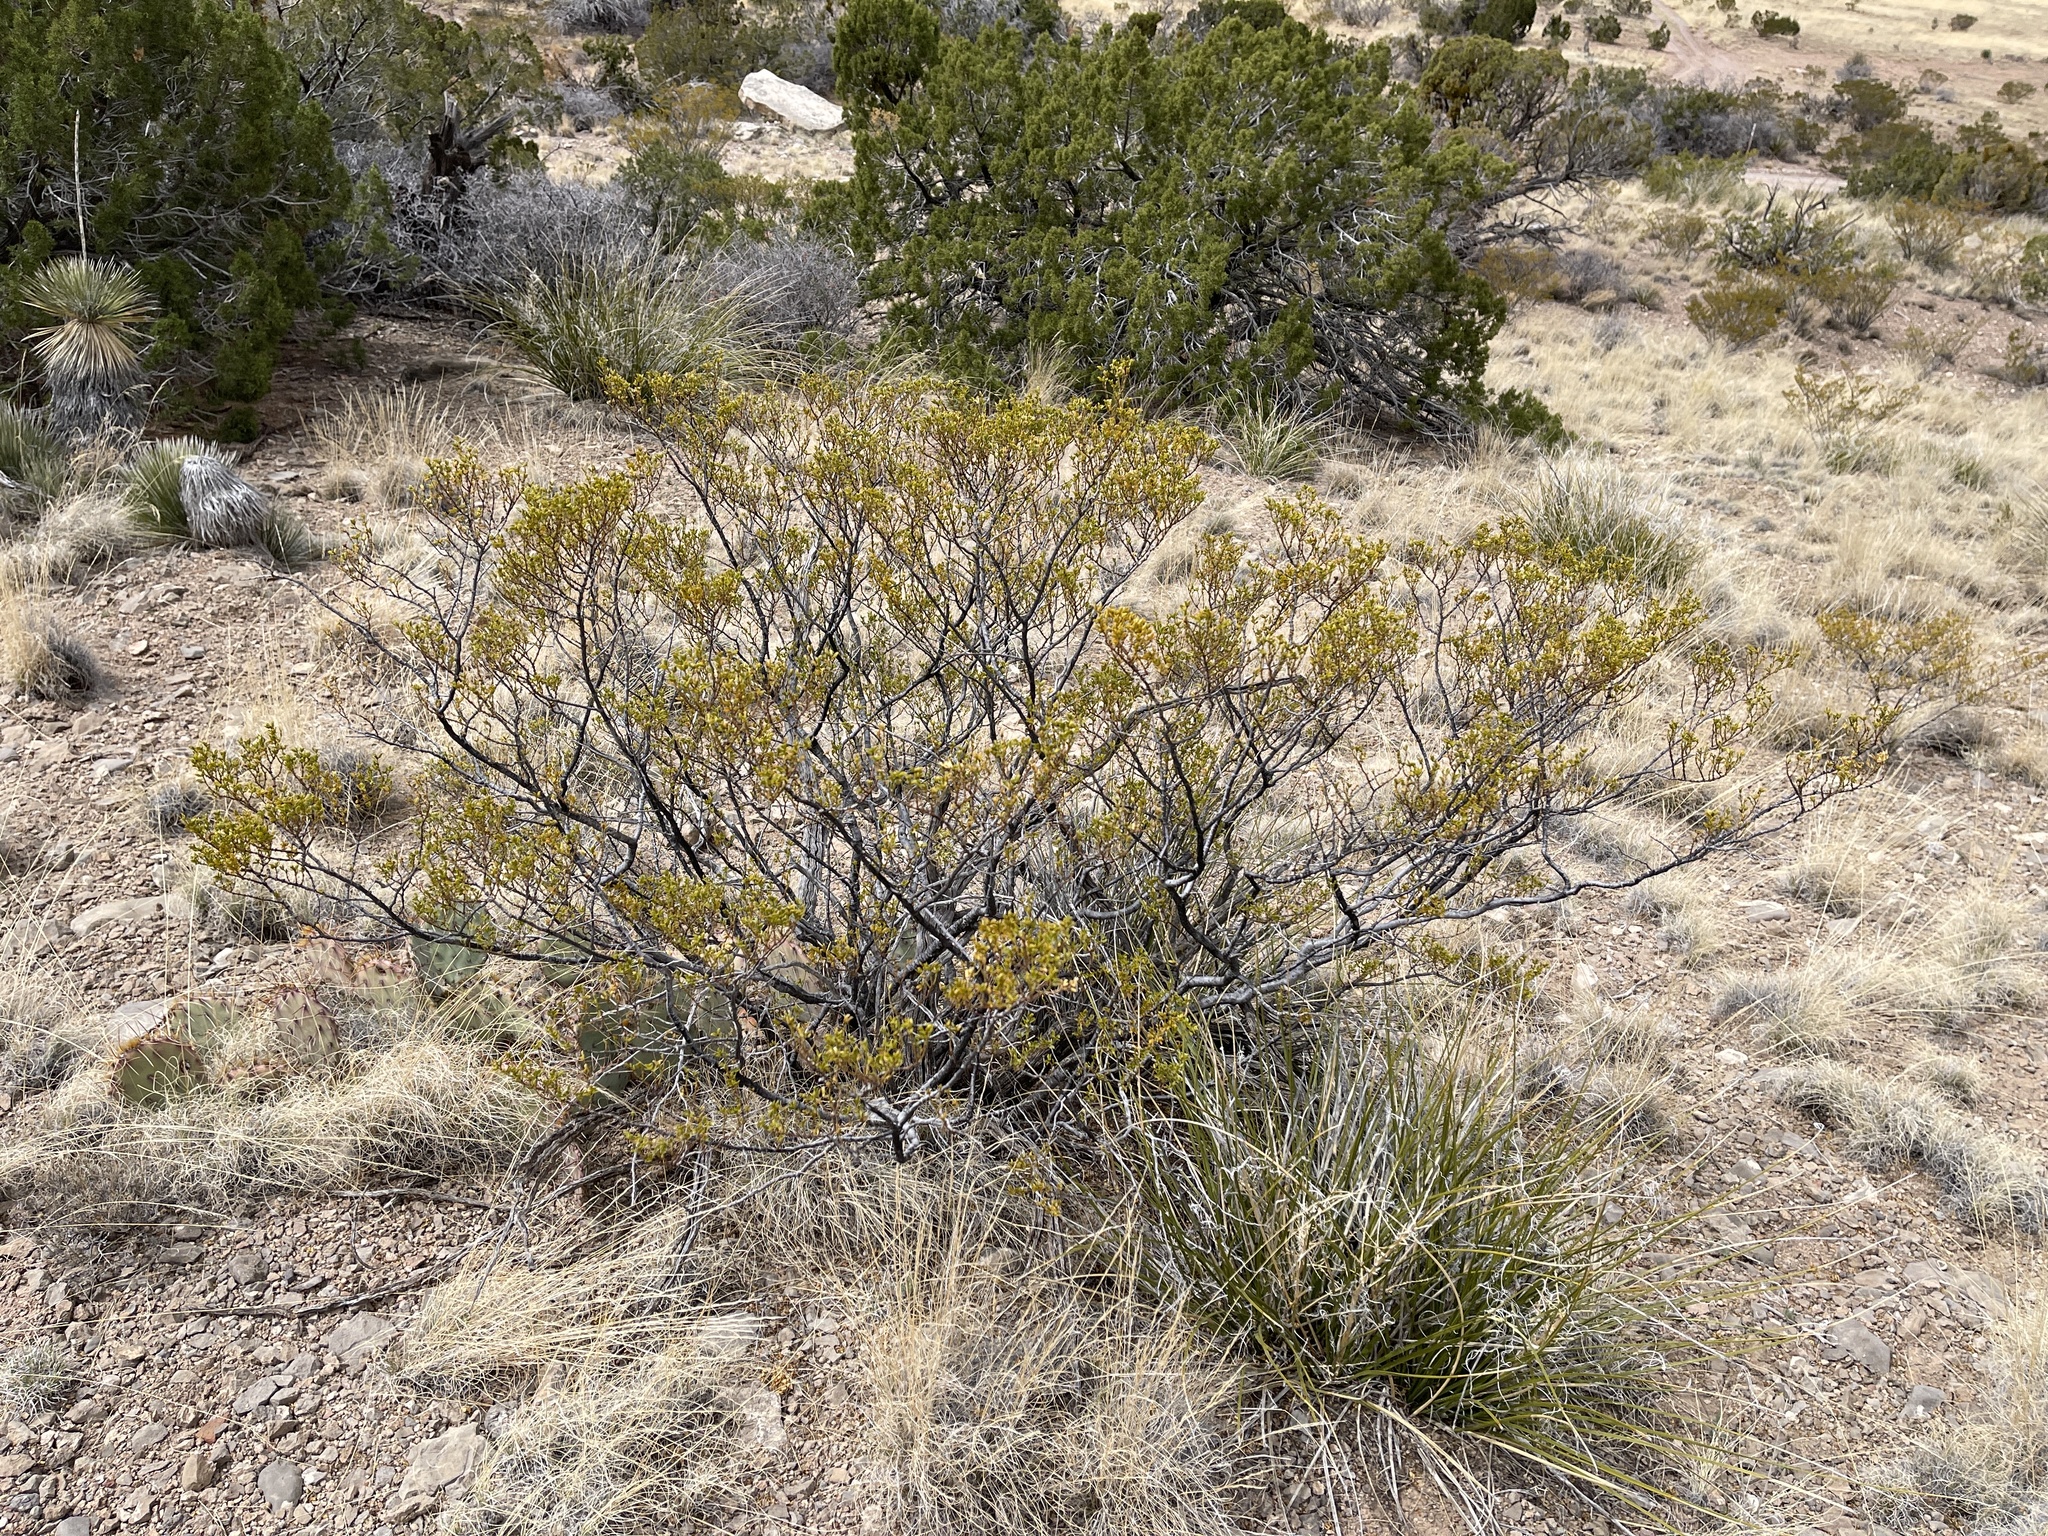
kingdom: Plantae
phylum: Tracheophyta
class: Magnoliopsida
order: Zygophyllales
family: Zygophyllaceae
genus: Larrea
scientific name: Larrea tridentata
